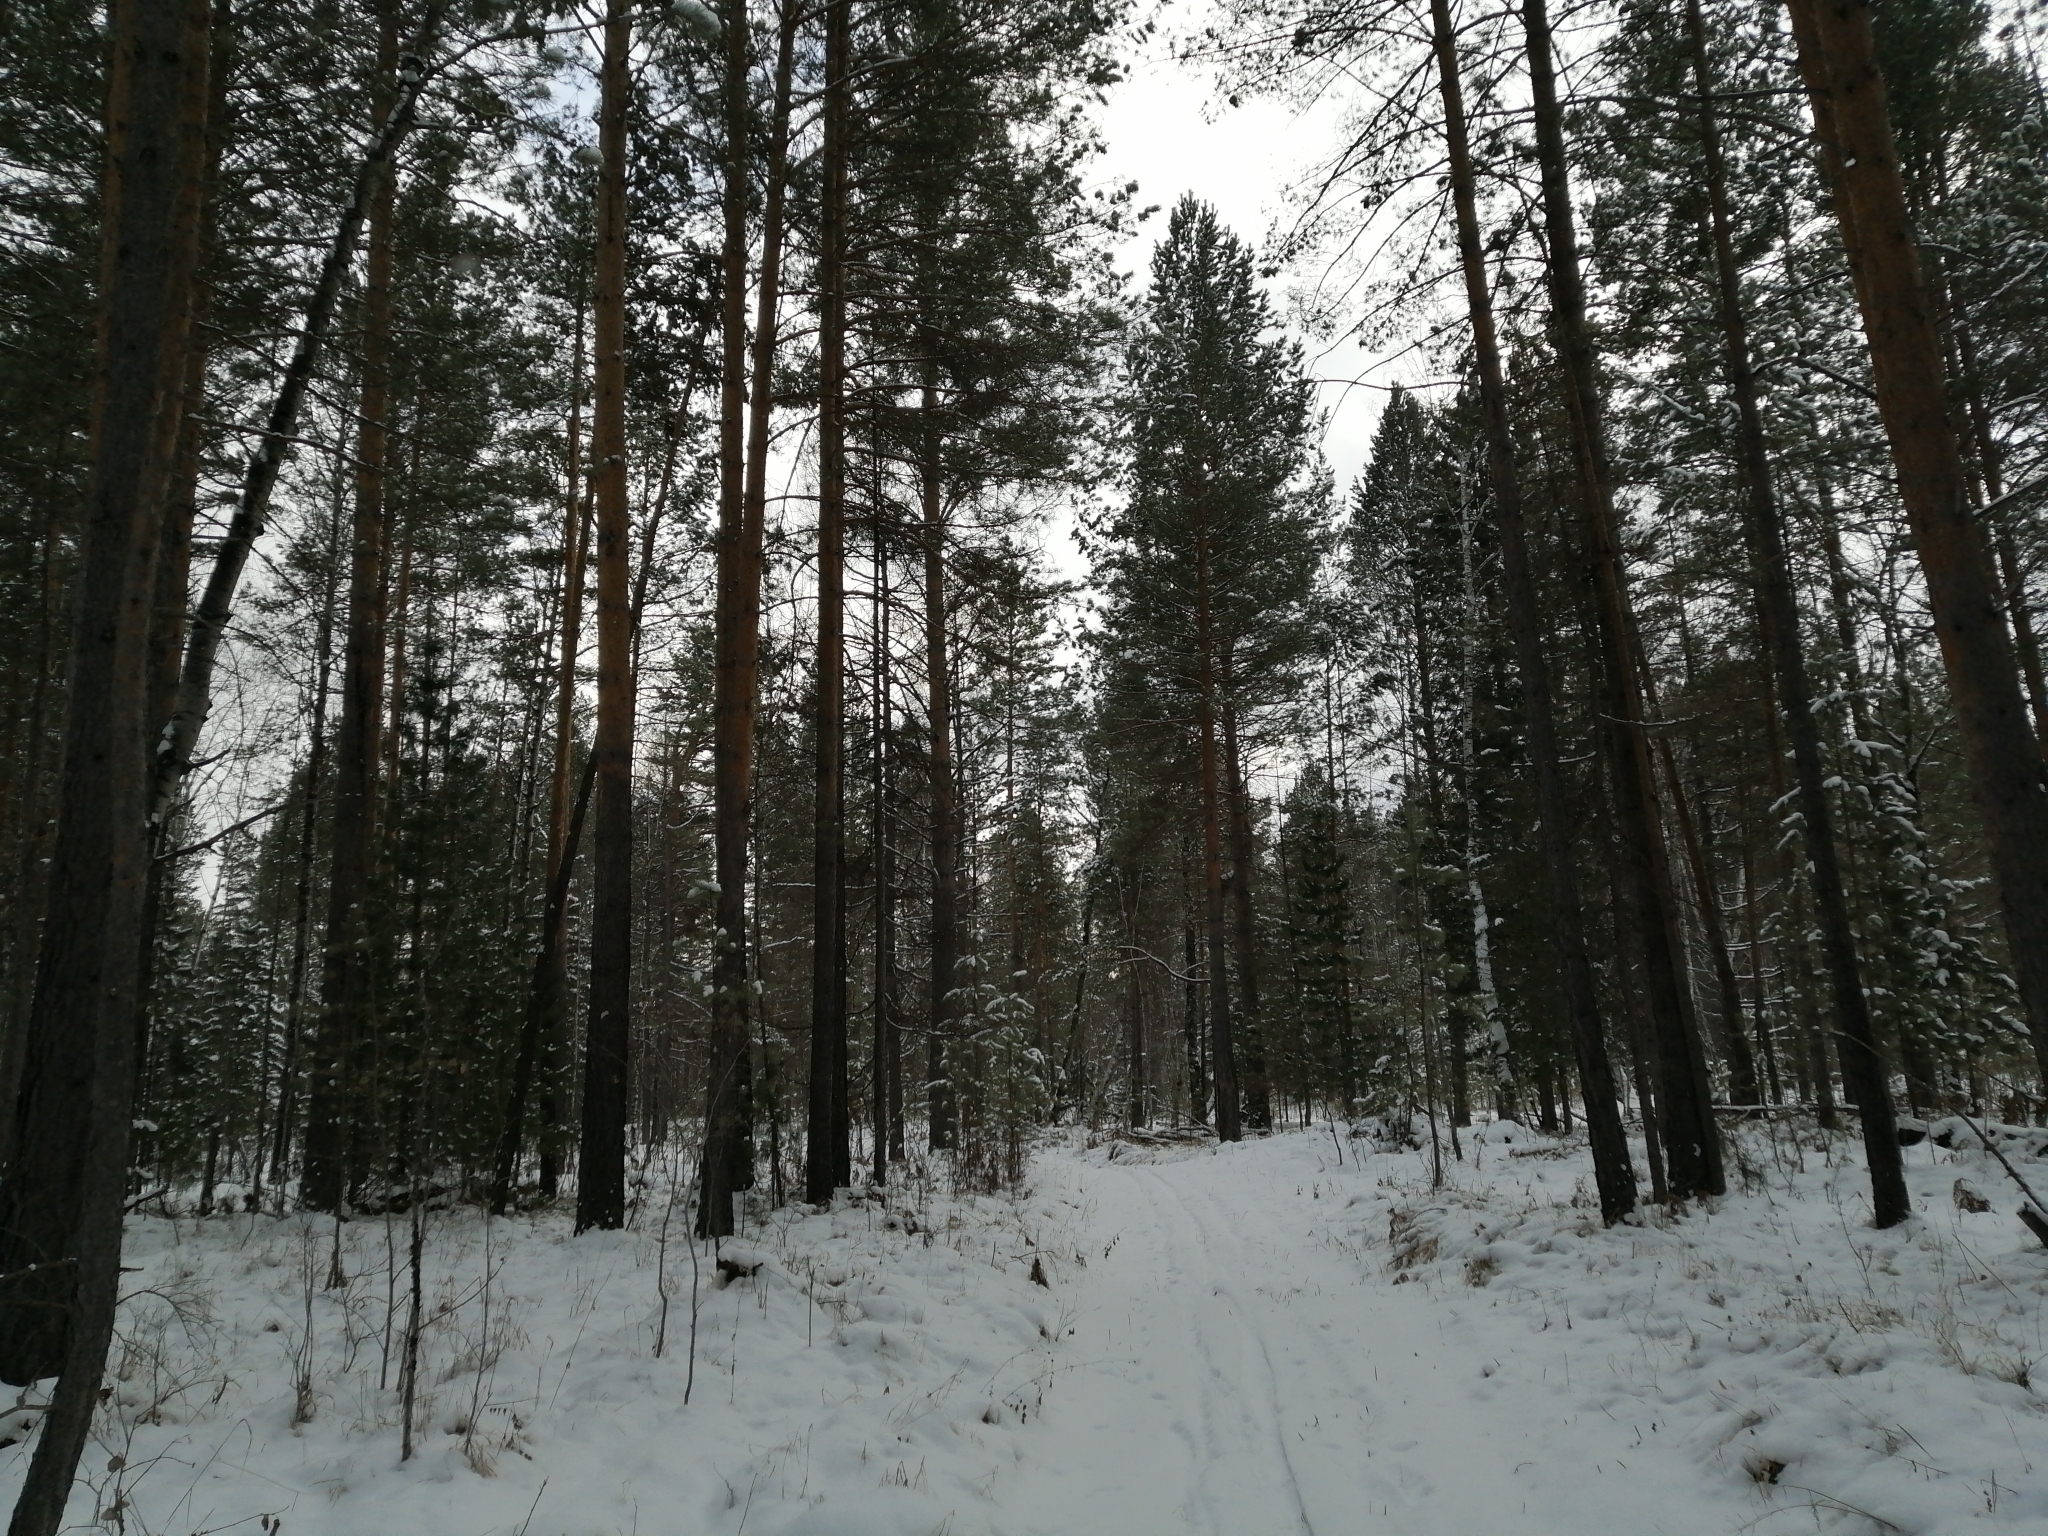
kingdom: Plantae
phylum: Tracheophyta
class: Pinopsida
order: Pinales
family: Pinaceae
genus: Pinus
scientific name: Pinus sylvestris
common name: Scots pine
